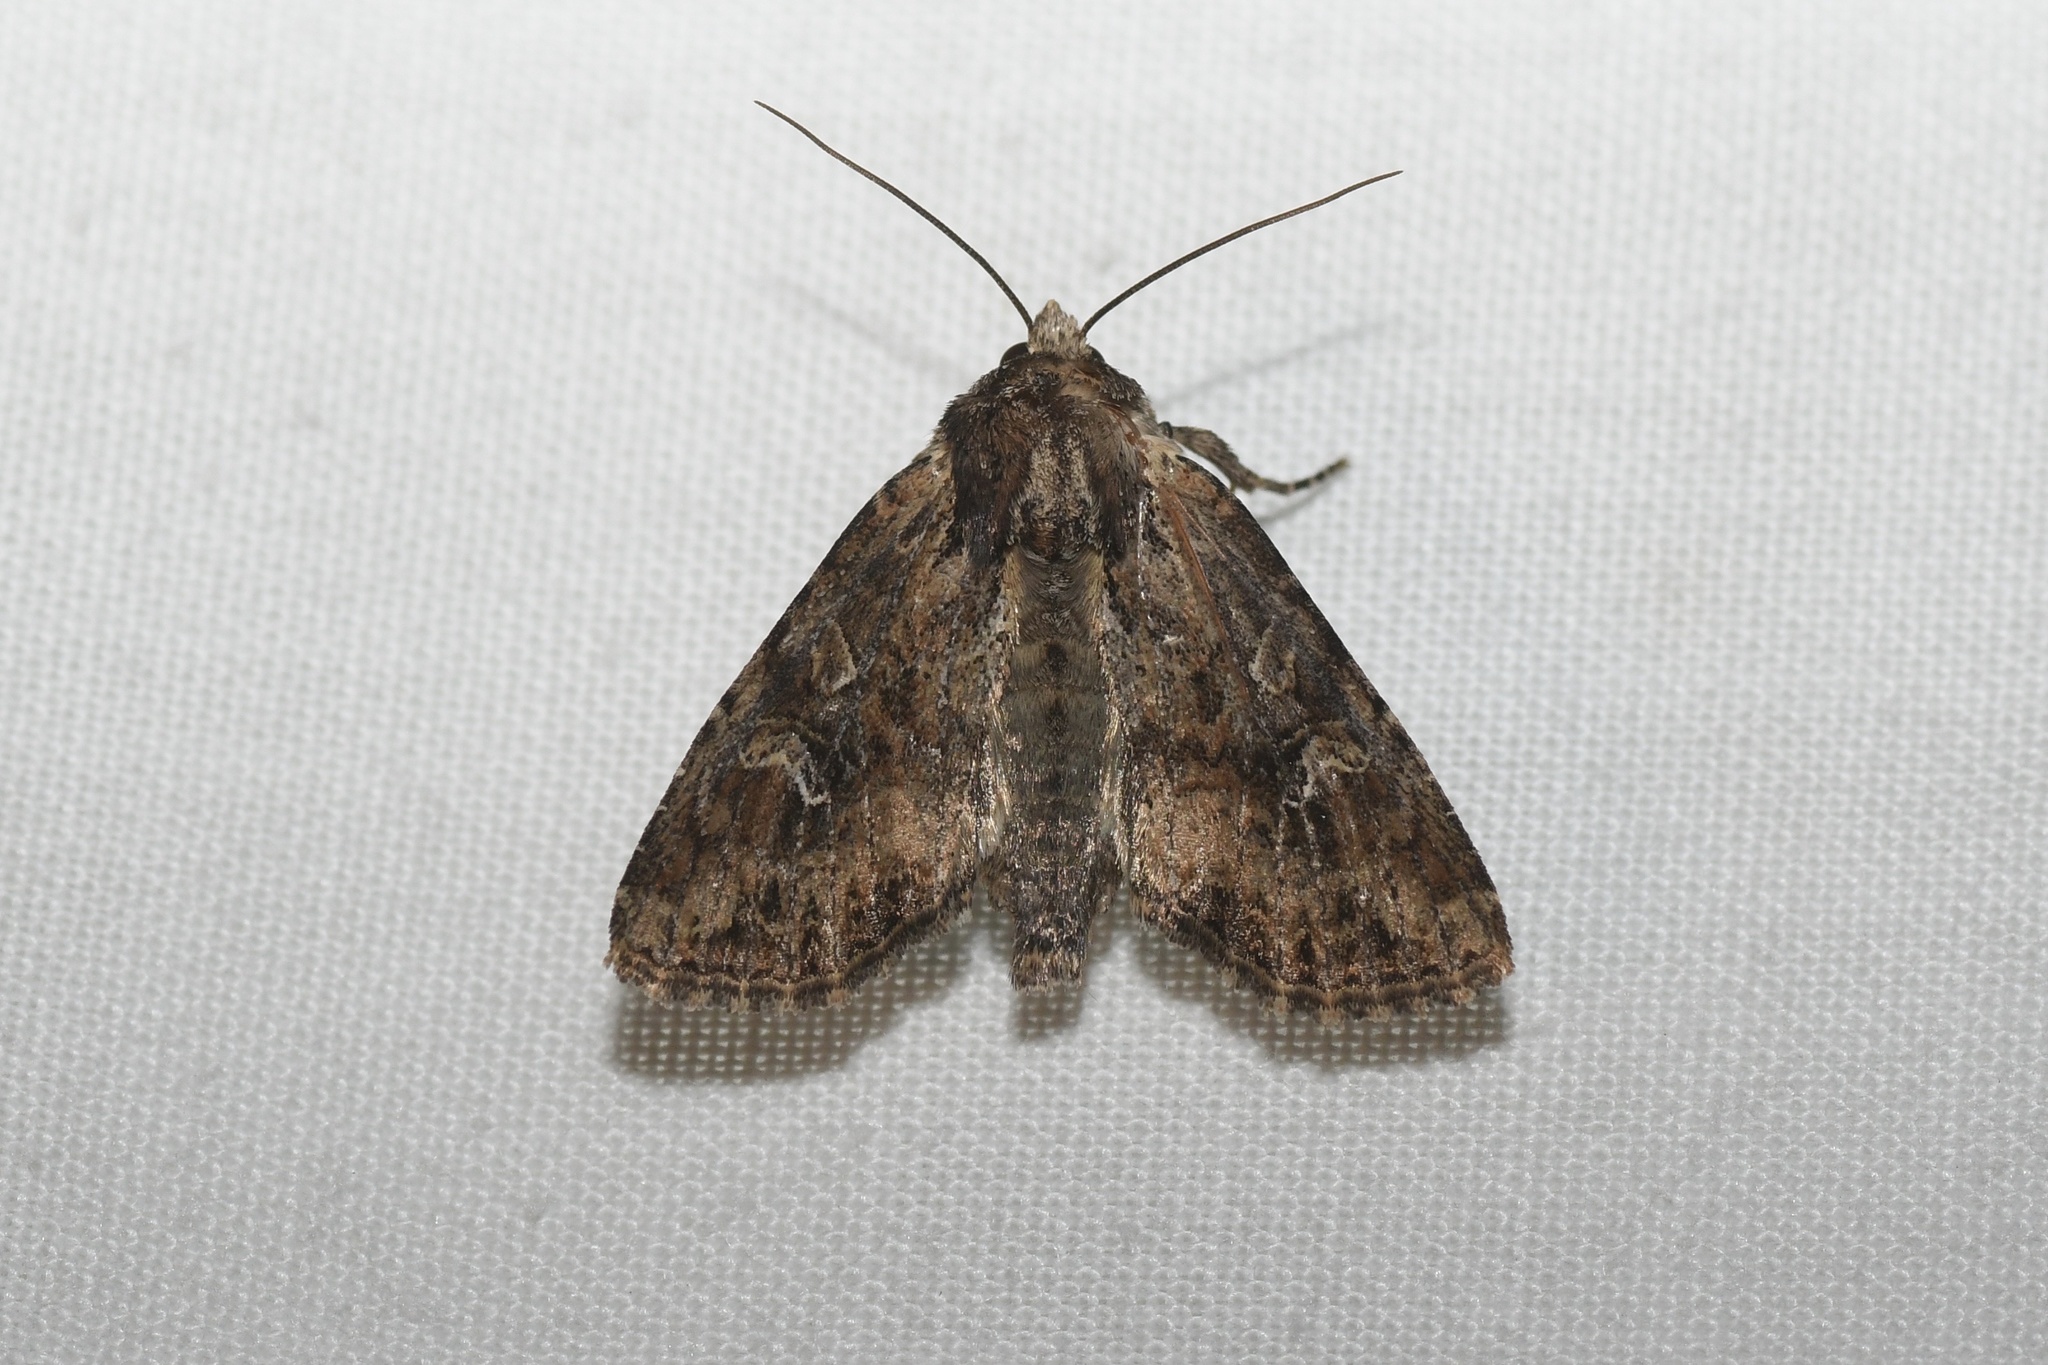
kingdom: Animalia
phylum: Arthropoda
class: Insecta
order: Lepidoptera
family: Noctuidae
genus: Apamea
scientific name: Apamea unanimis
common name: Small clouded brindle
